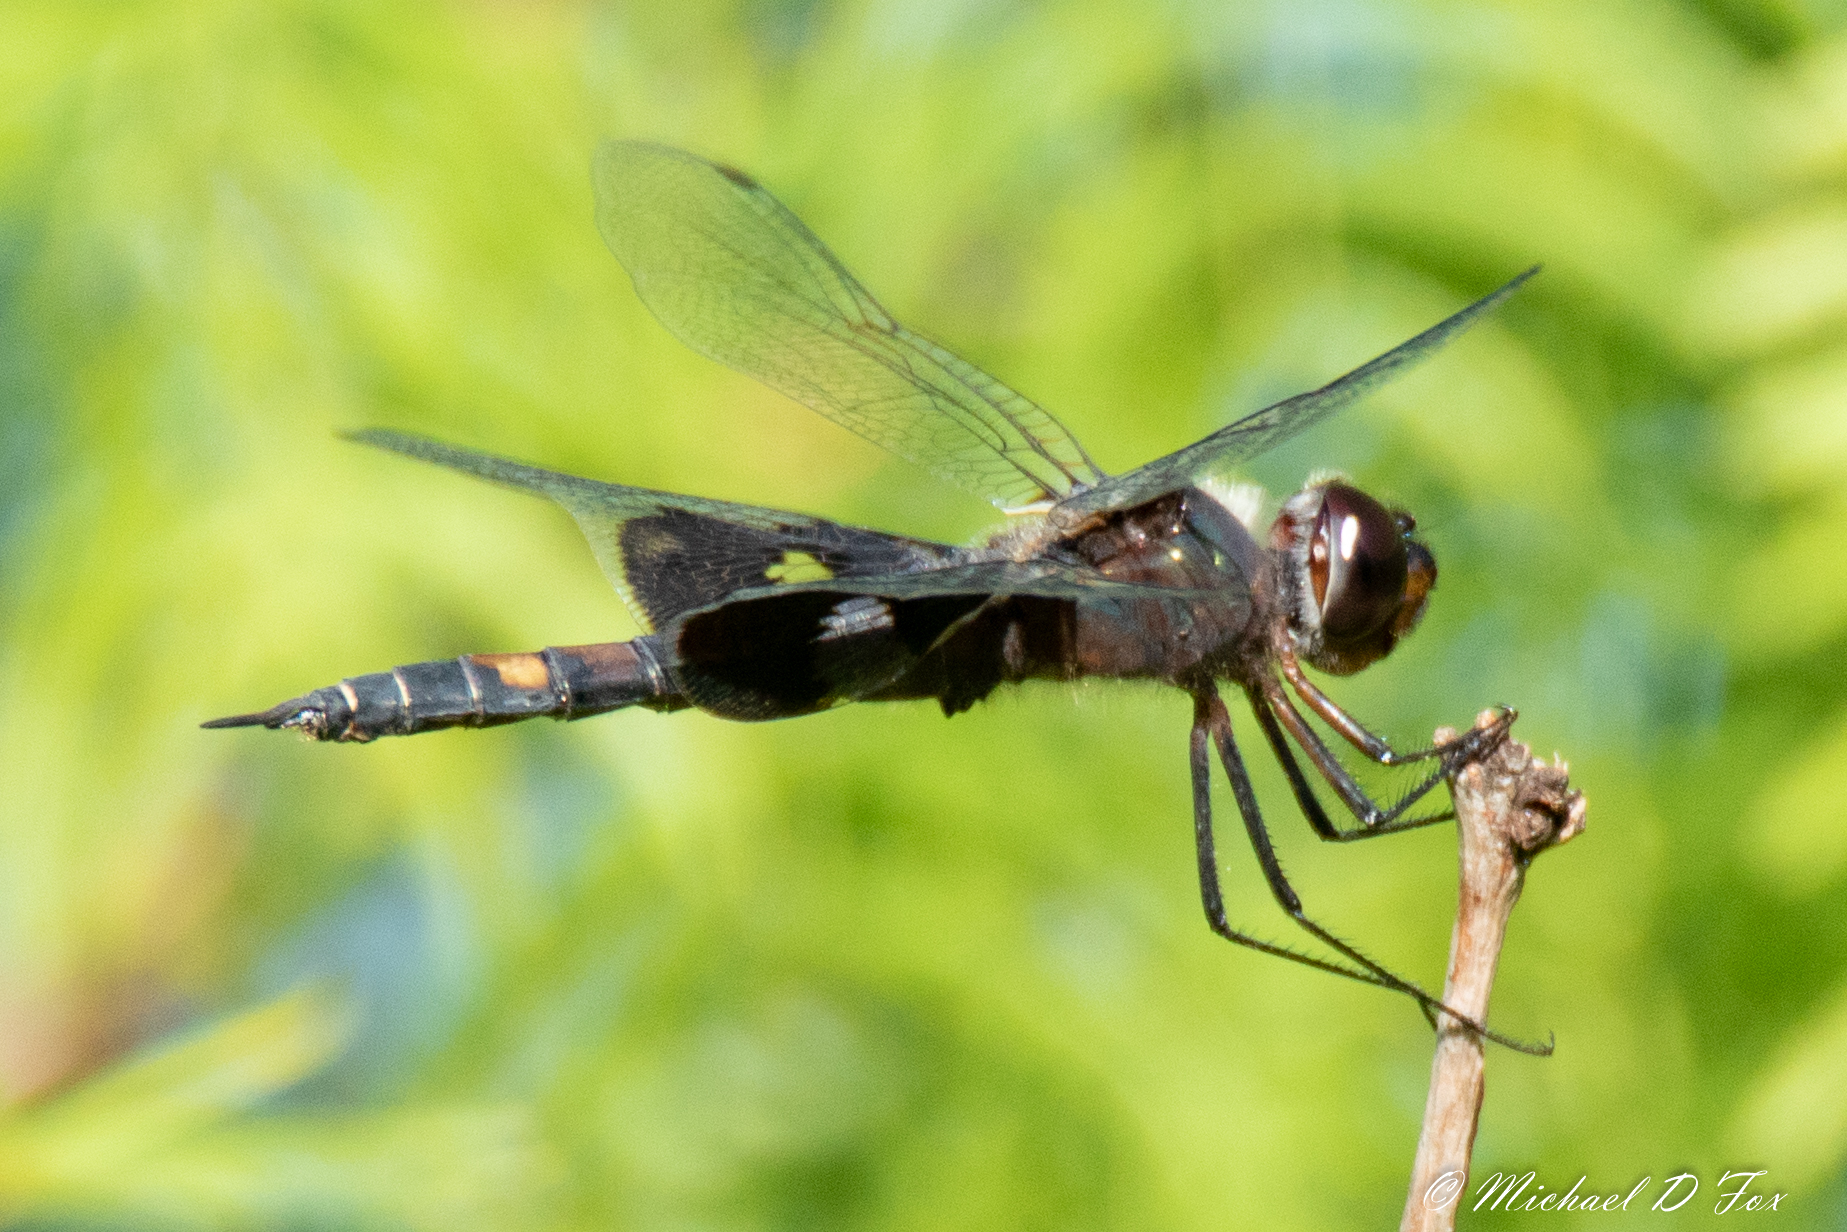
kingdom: Animalia
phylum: Arthropoda
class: Insecta
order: Odonata
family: Libellulidae
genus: Tramea
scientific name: Tramea lacerata
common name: Black saddlebags
